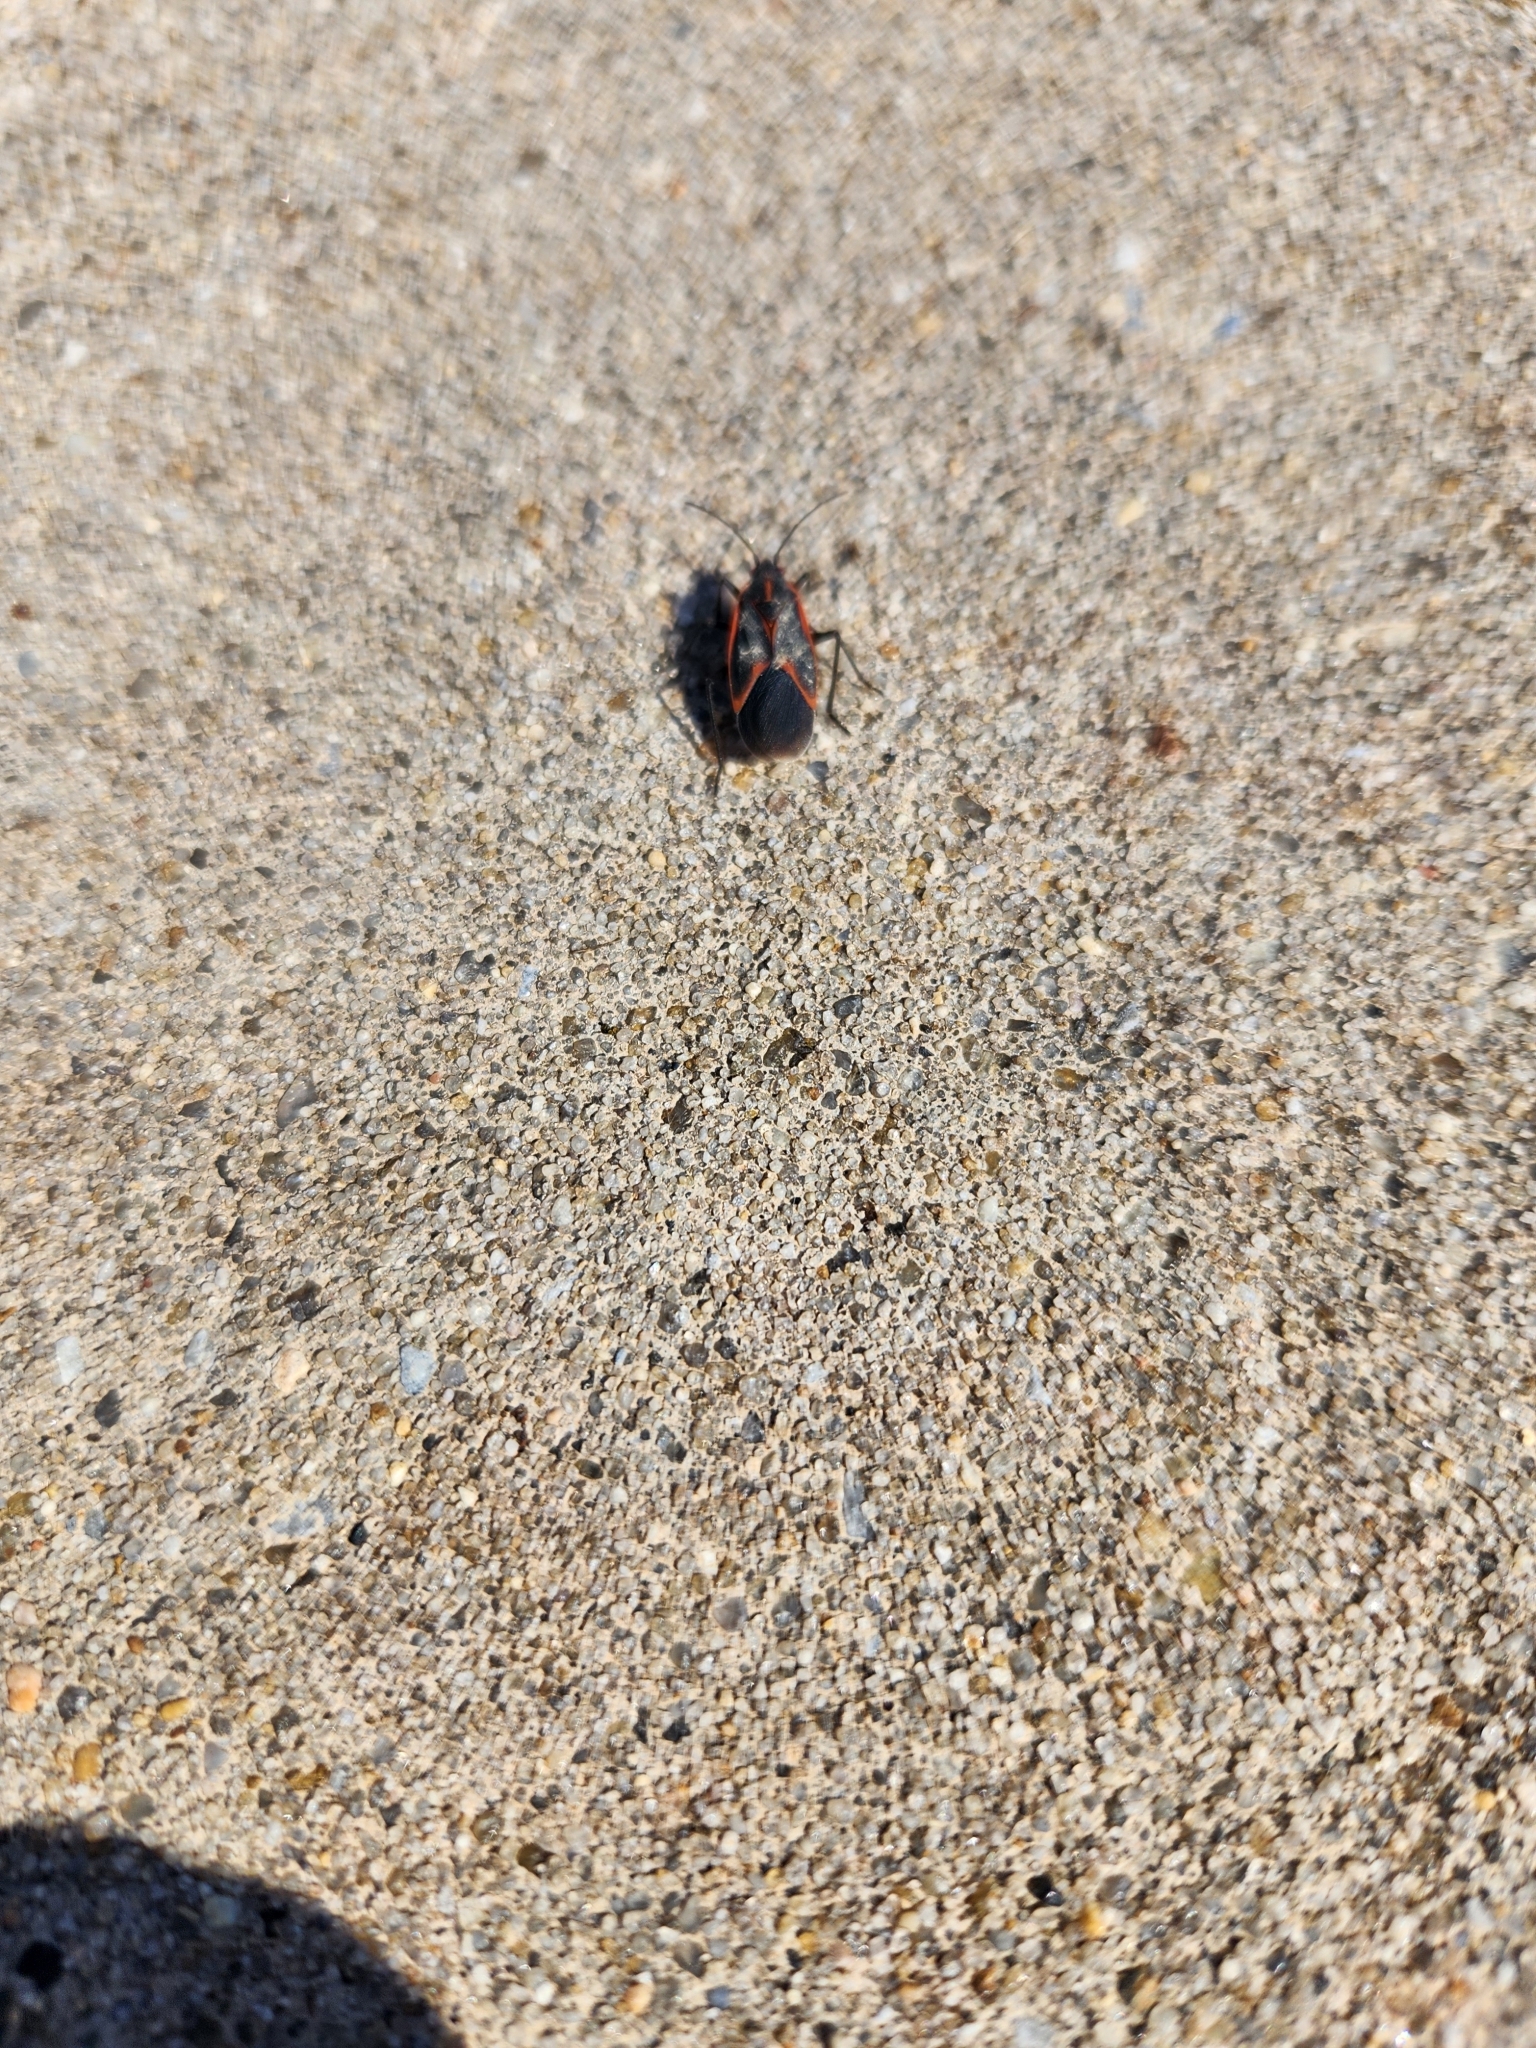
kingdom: Animalia
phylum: Arthropoda
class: Insecta
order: Hemiptera
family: Rhopalidae
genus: Boisea
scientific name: Boisea trivittata
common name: Boxelder bug
